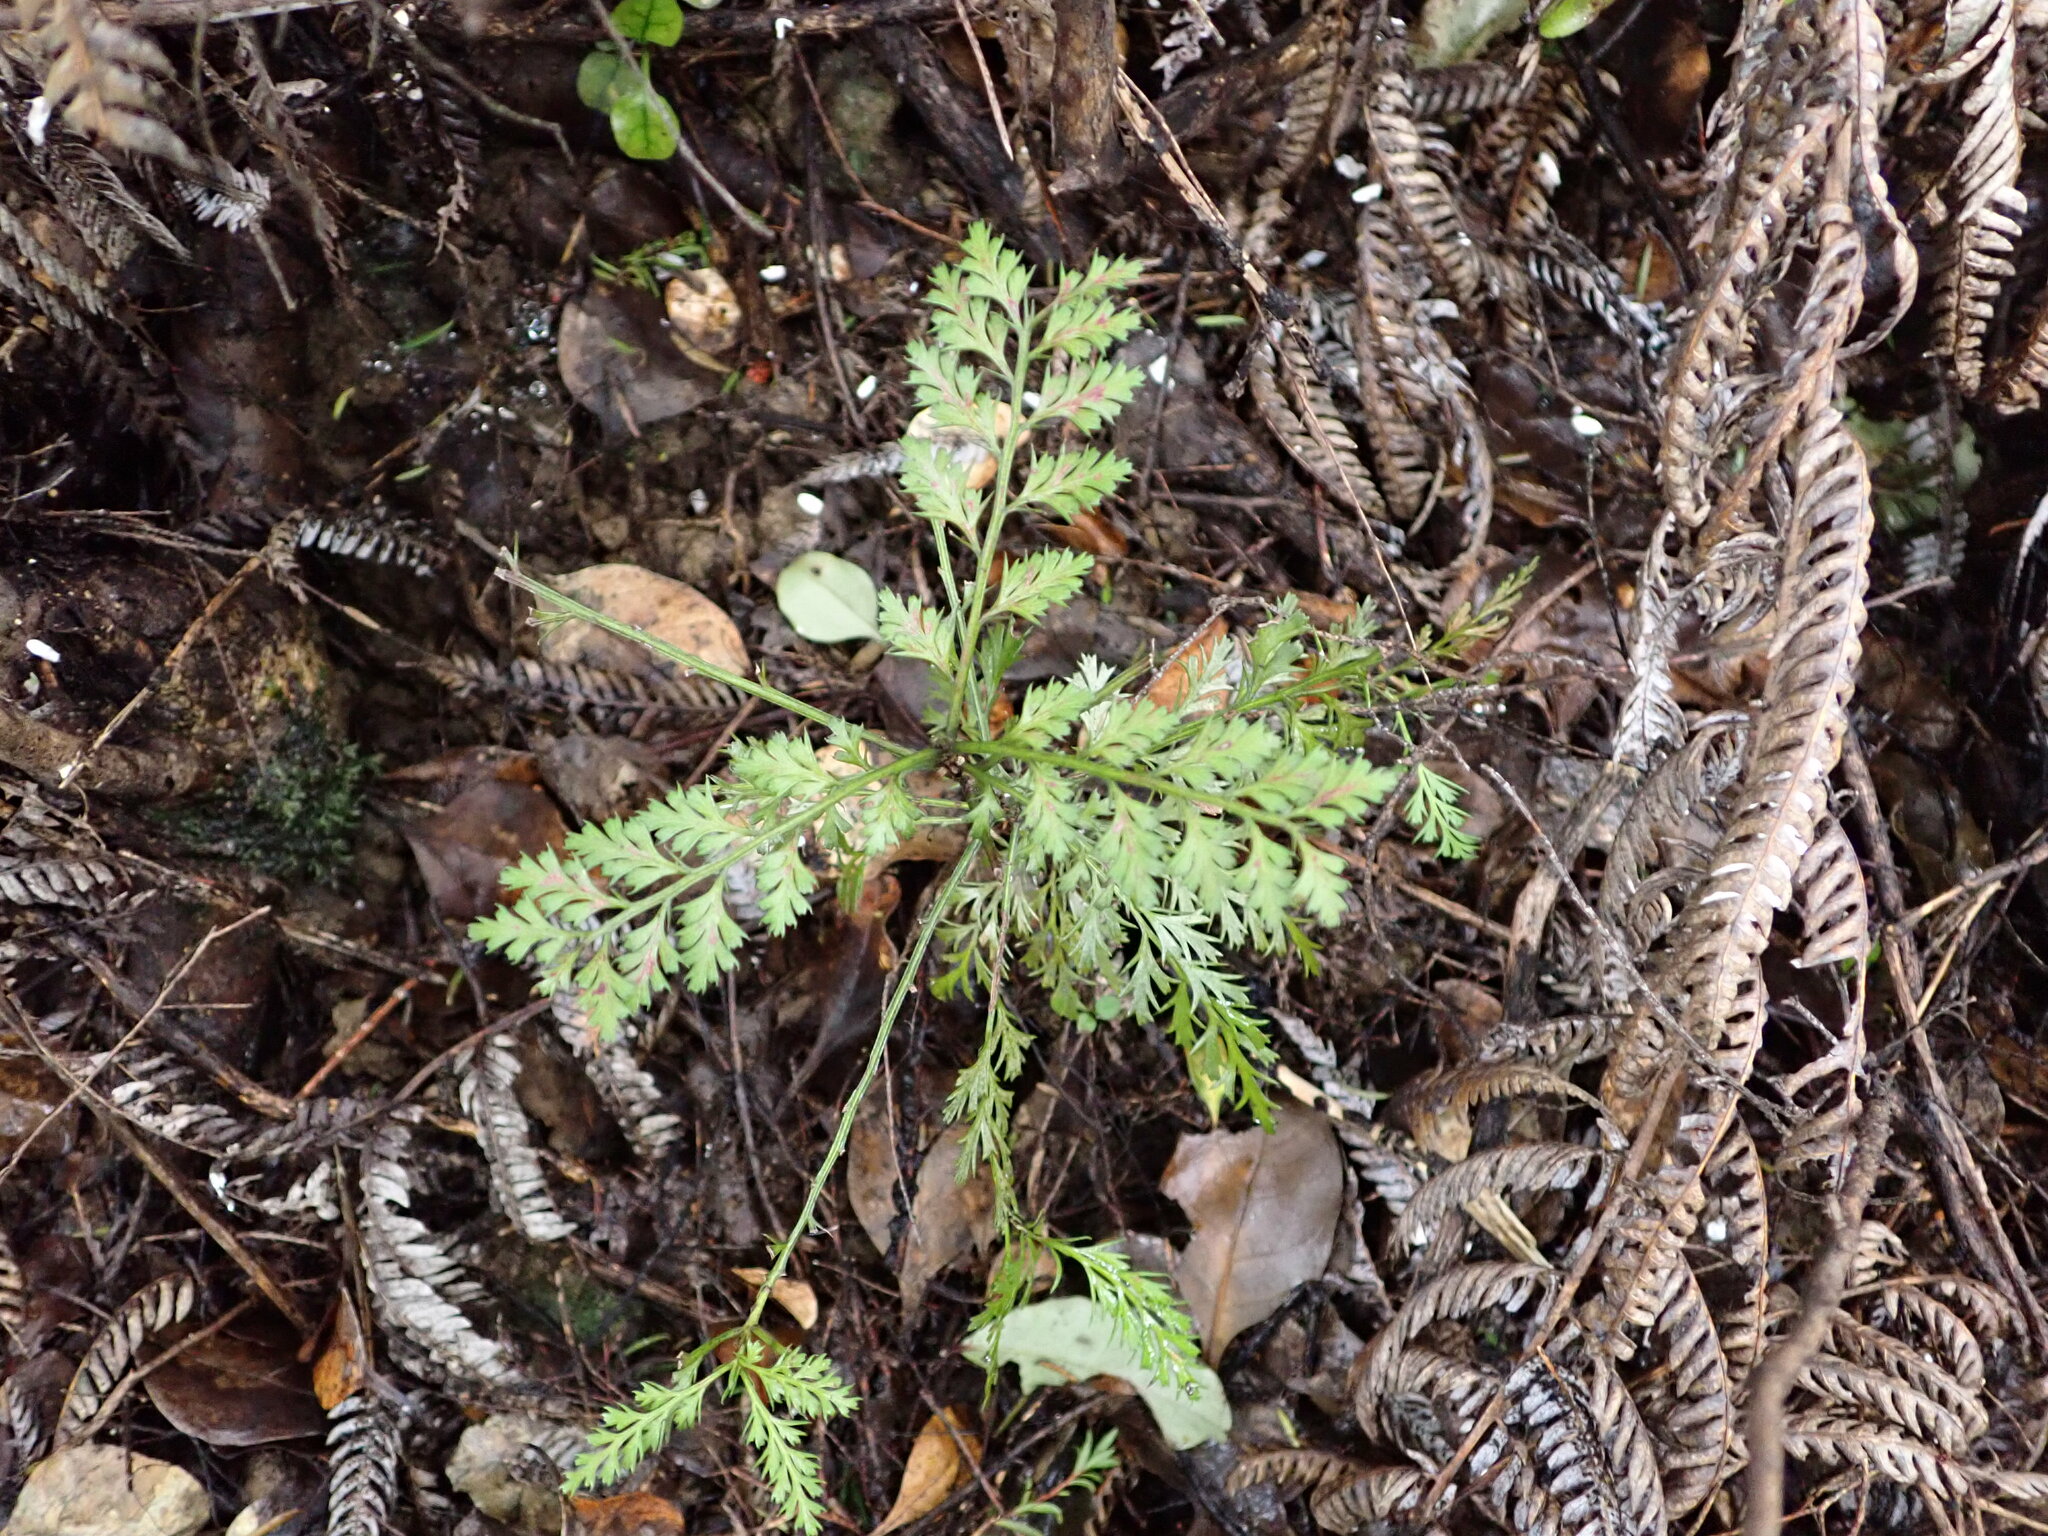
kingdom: Plantae
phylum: Tracheophyta
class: Pinopsida
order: Pinales
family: Phyllocladaceae
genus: Phyllocladus
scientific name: Phyllocladus trichomanoides
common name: Celery pine
